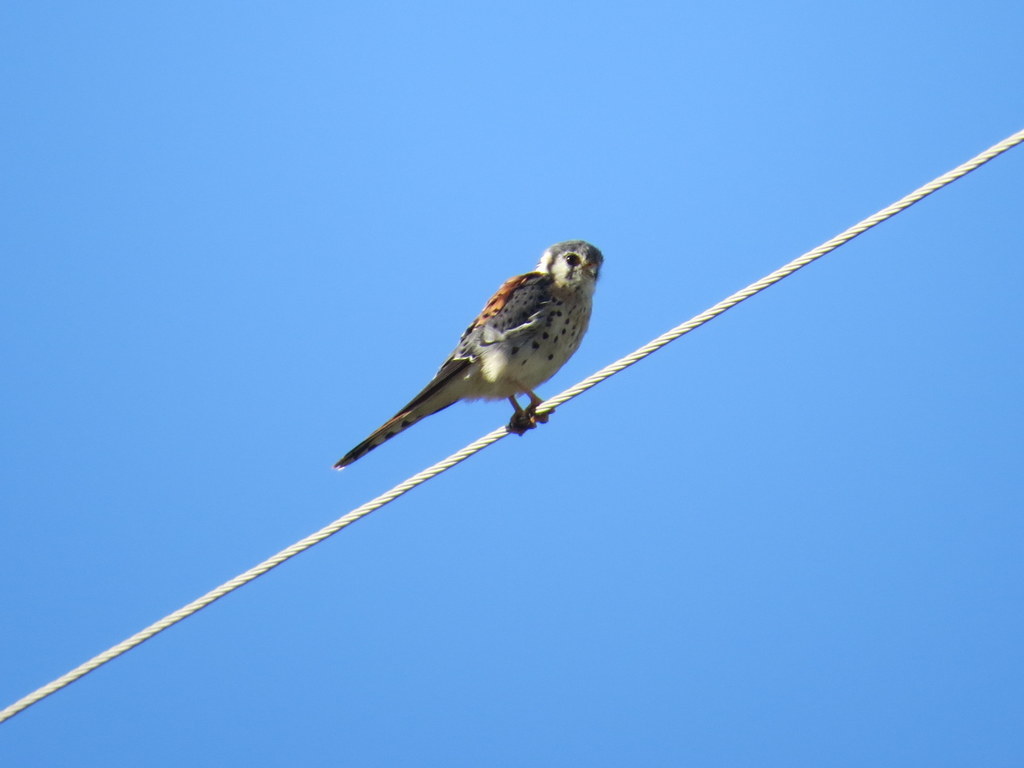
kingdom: Animalia
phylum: Chordata
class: Aves
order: Falconiformes
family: Falconidae
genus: Falco
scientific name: Falco sparverius
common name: American kestrel
